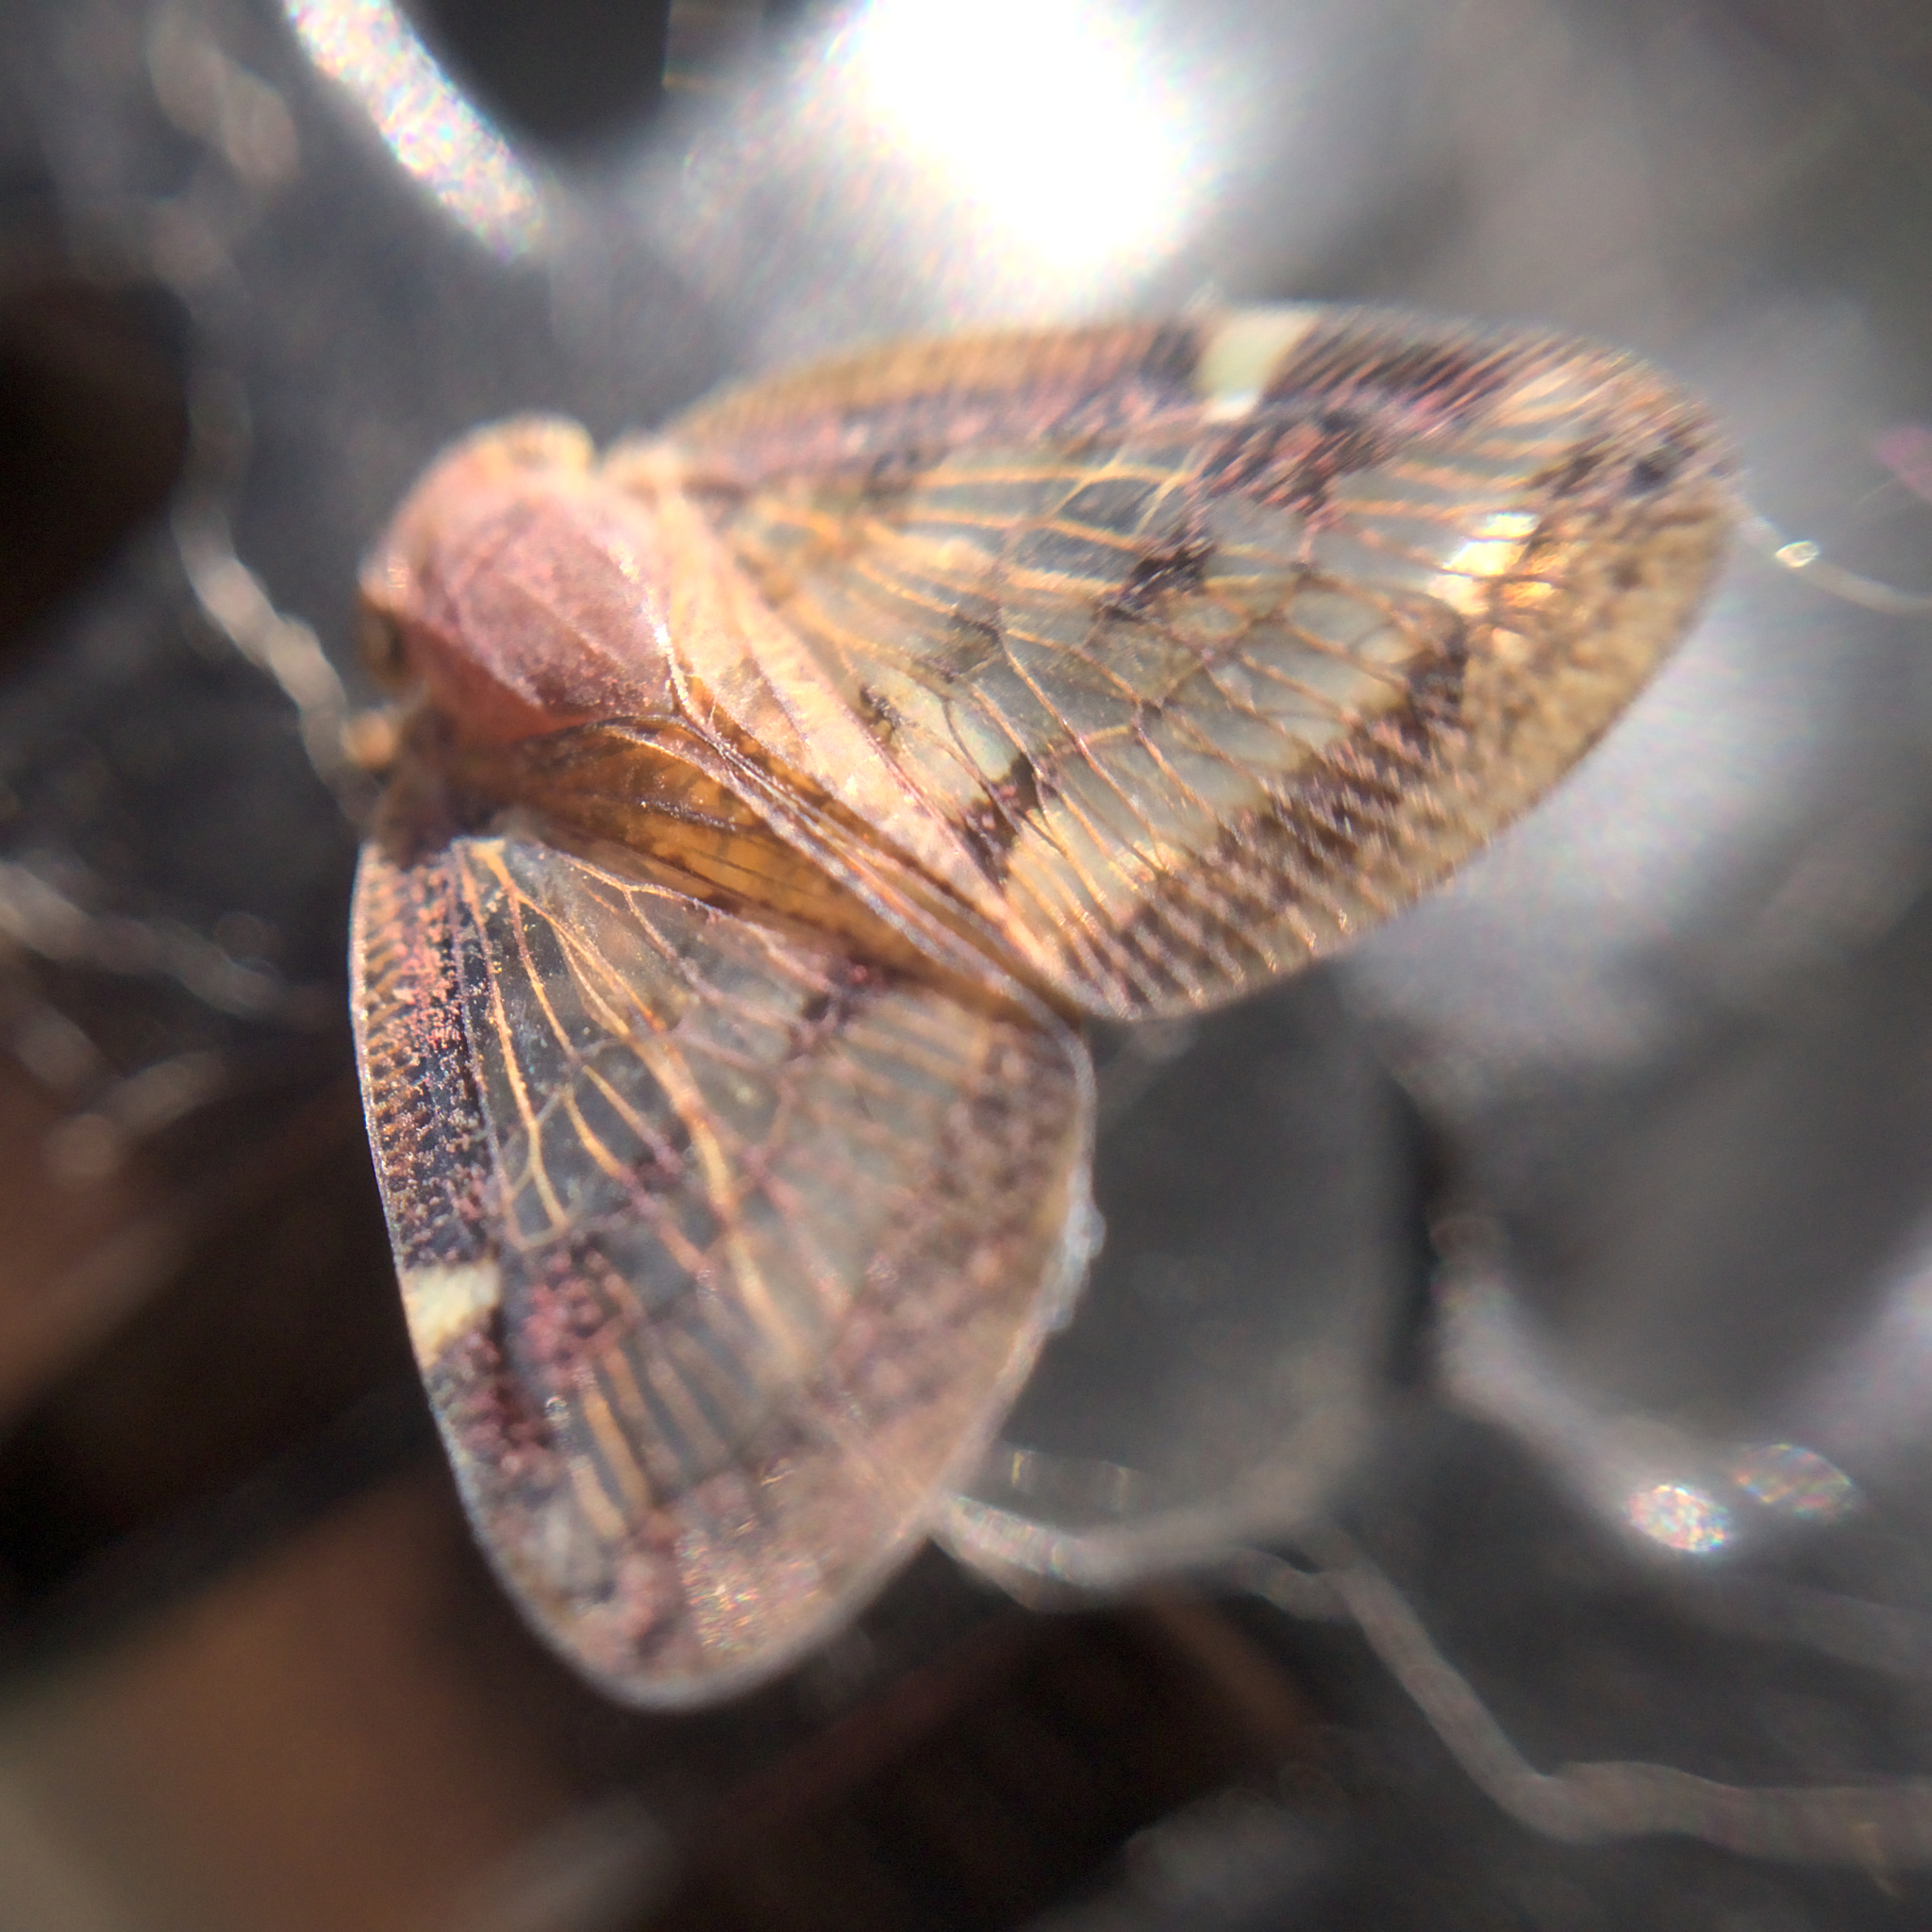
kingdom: Animalia
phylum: Arthropoda
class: Insecta
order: Hemiptera
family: Ricaniidae
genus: Scolypopa
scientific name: Scolypopa australis
